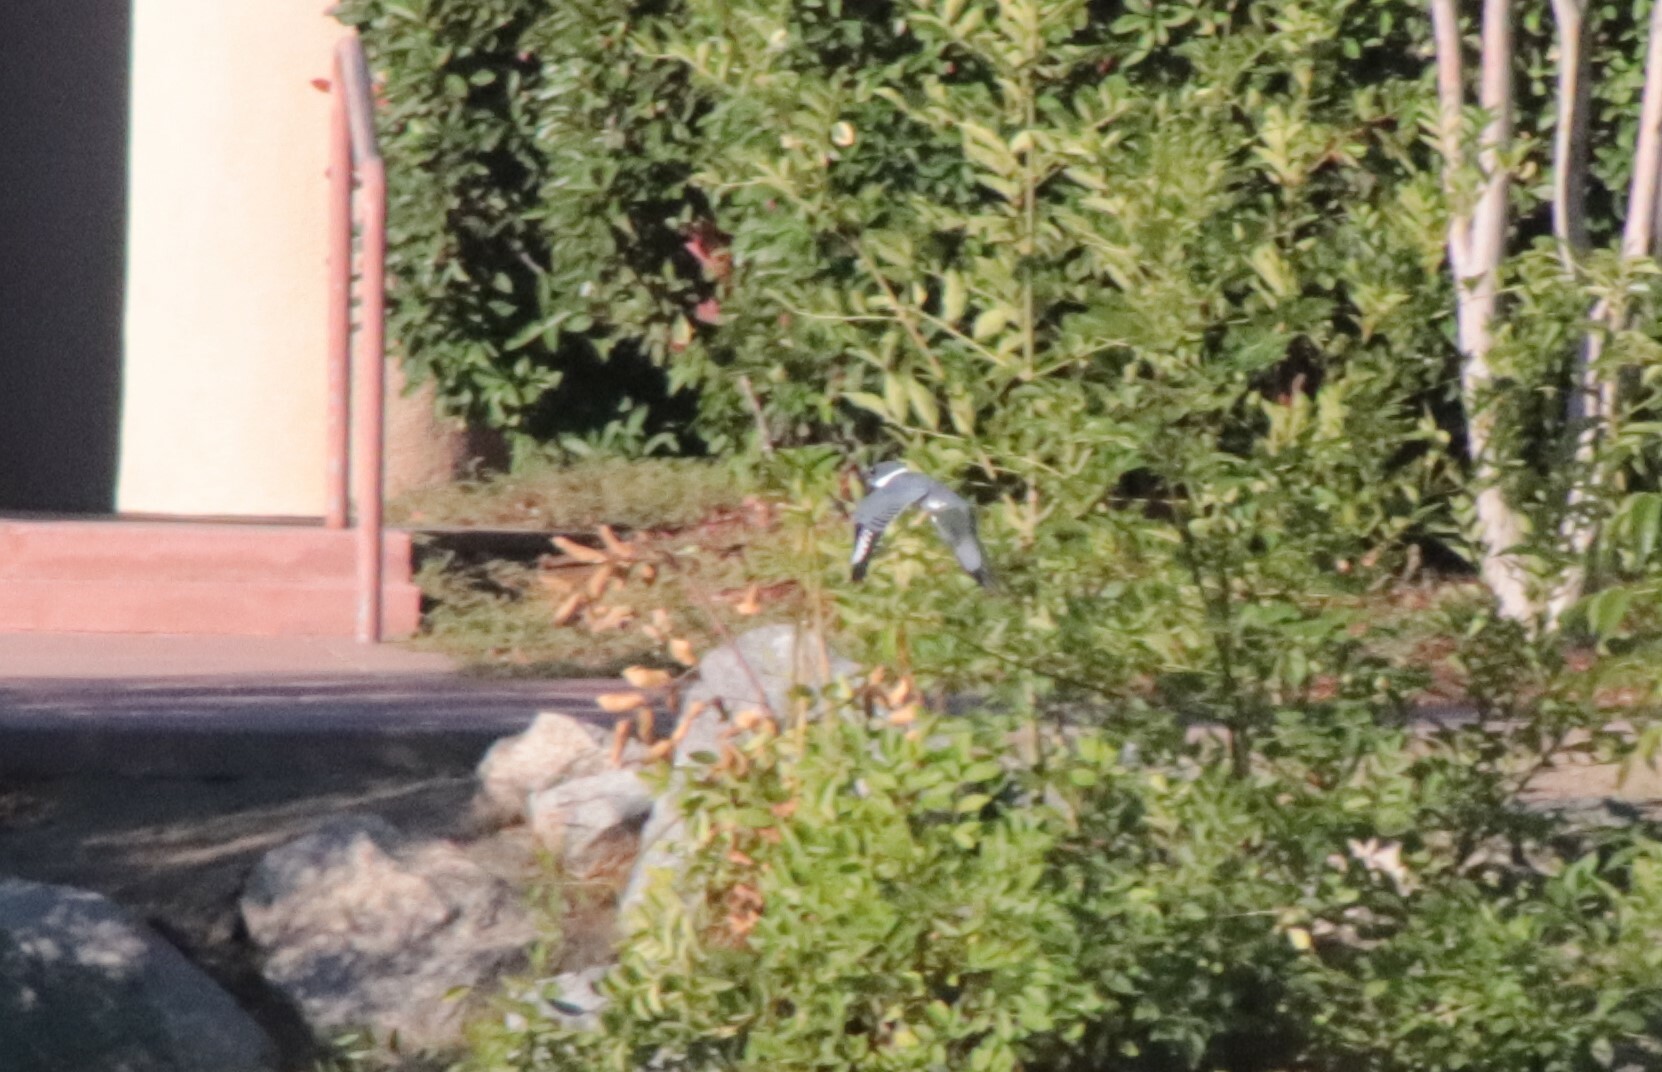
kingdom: Animalia
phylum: Chordata
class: Aves
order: Coraciiformes
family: Alcedinidae
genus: Megaceryle
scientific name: Megaceryle alcyon
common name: Belted kingfisher
